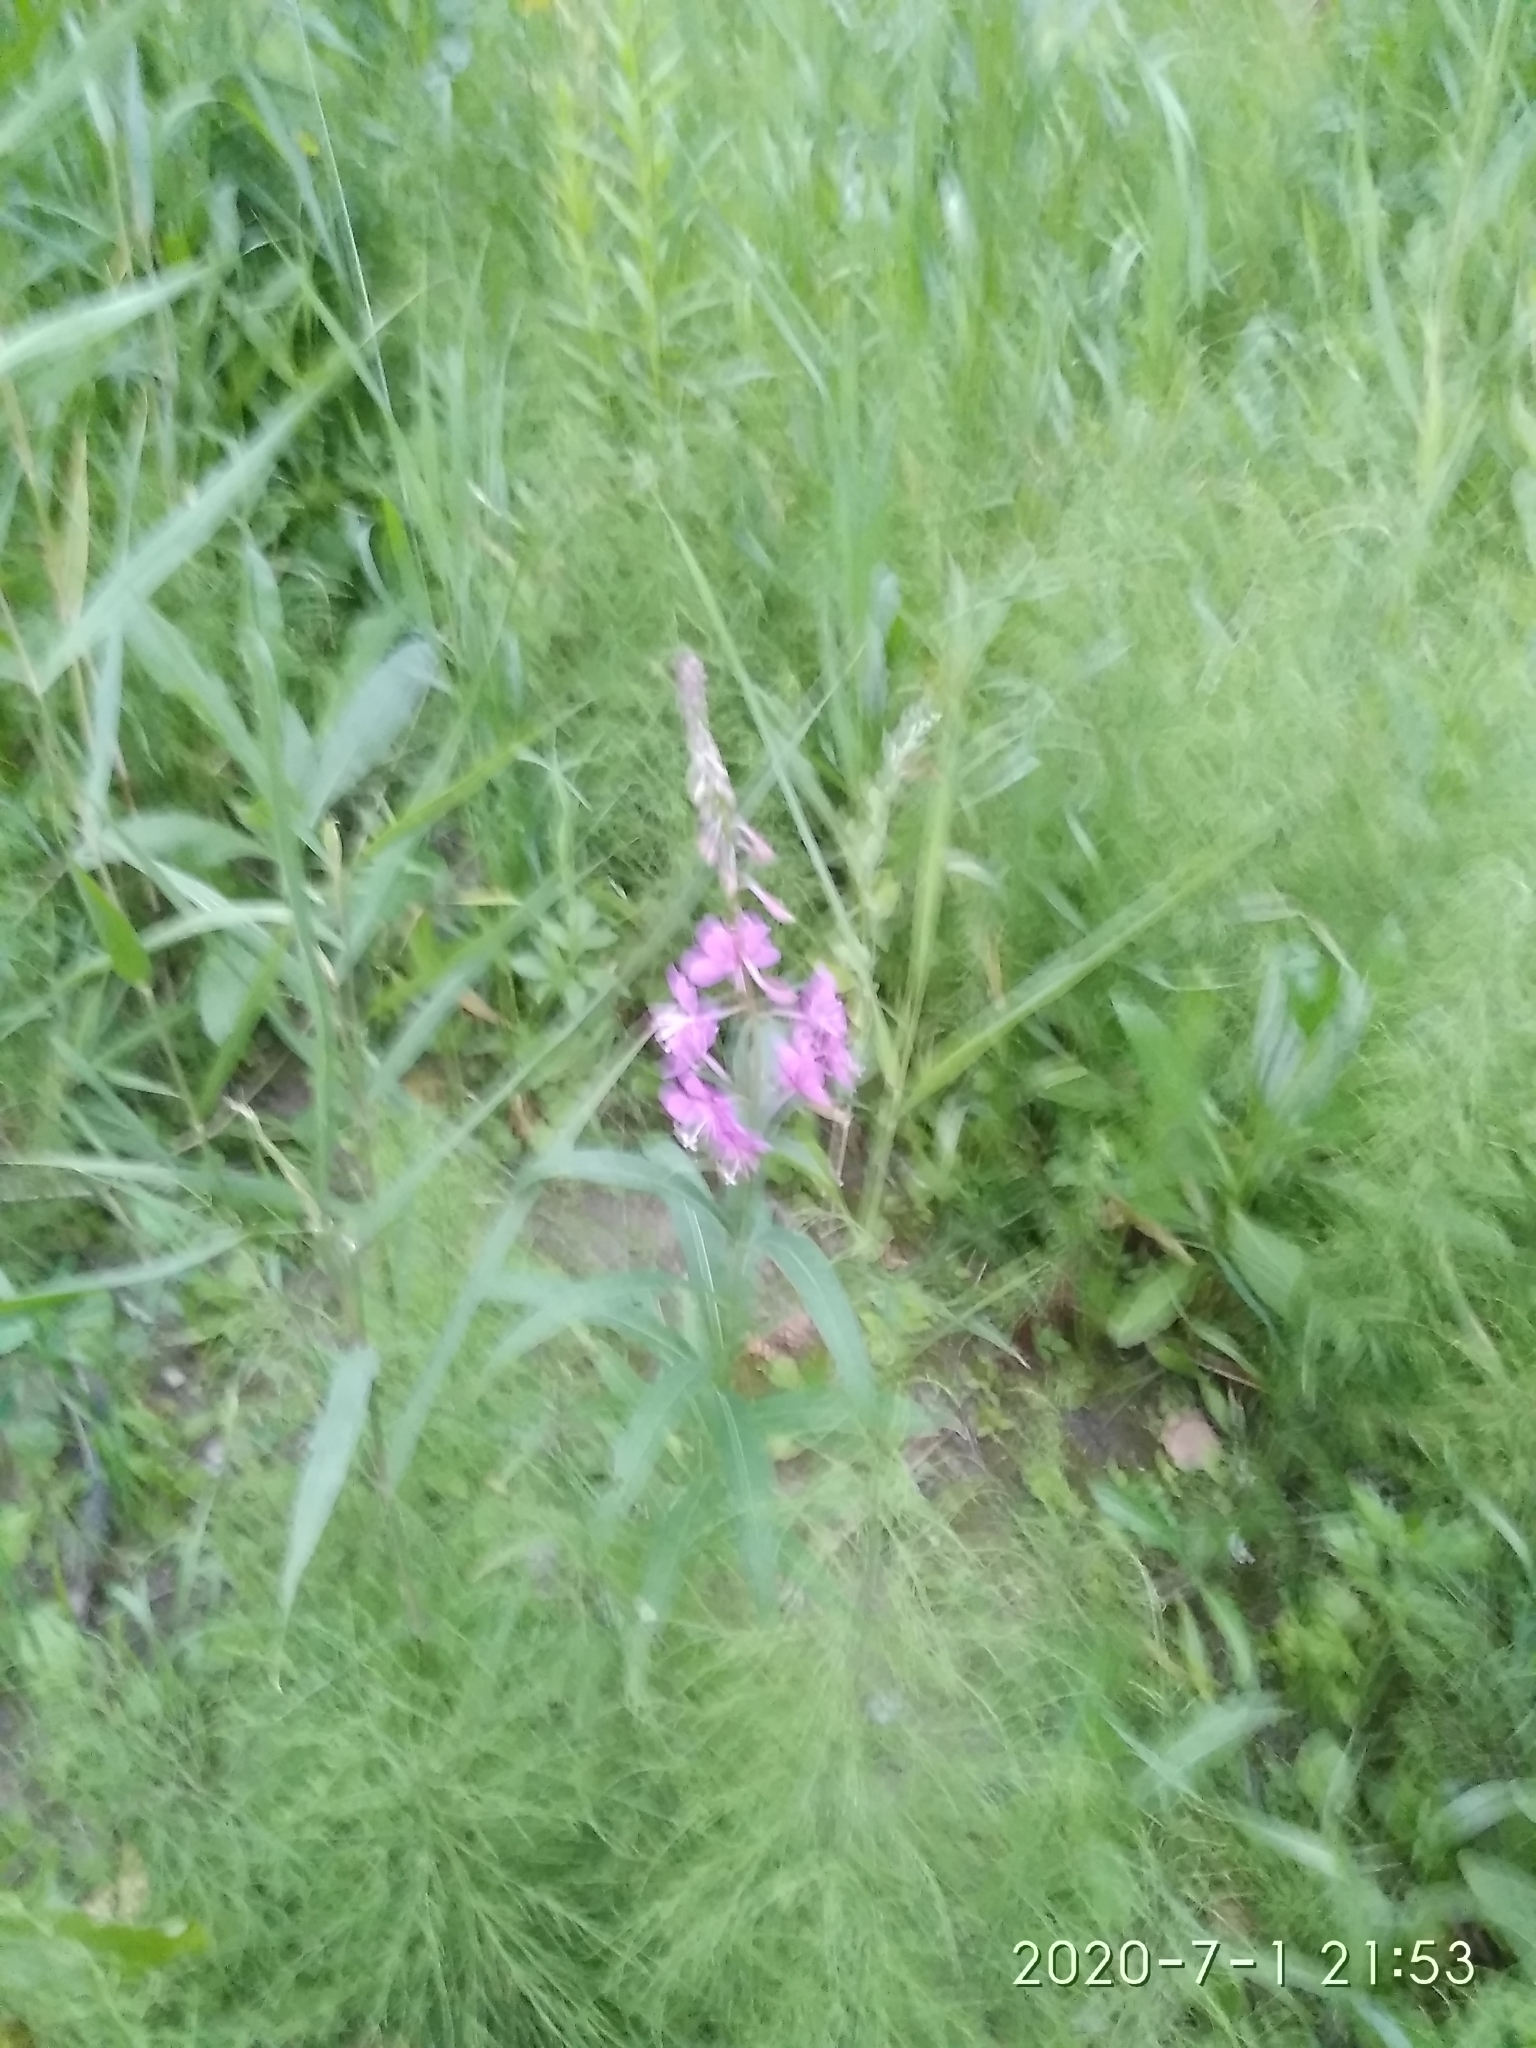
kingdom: Plantae
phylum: Tracheophyta
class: Magnoliopsida
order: Myrtales
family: Onagraceae
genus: Chamaenerion
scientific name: Chamaenerion angustifolium
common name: Fireweed
